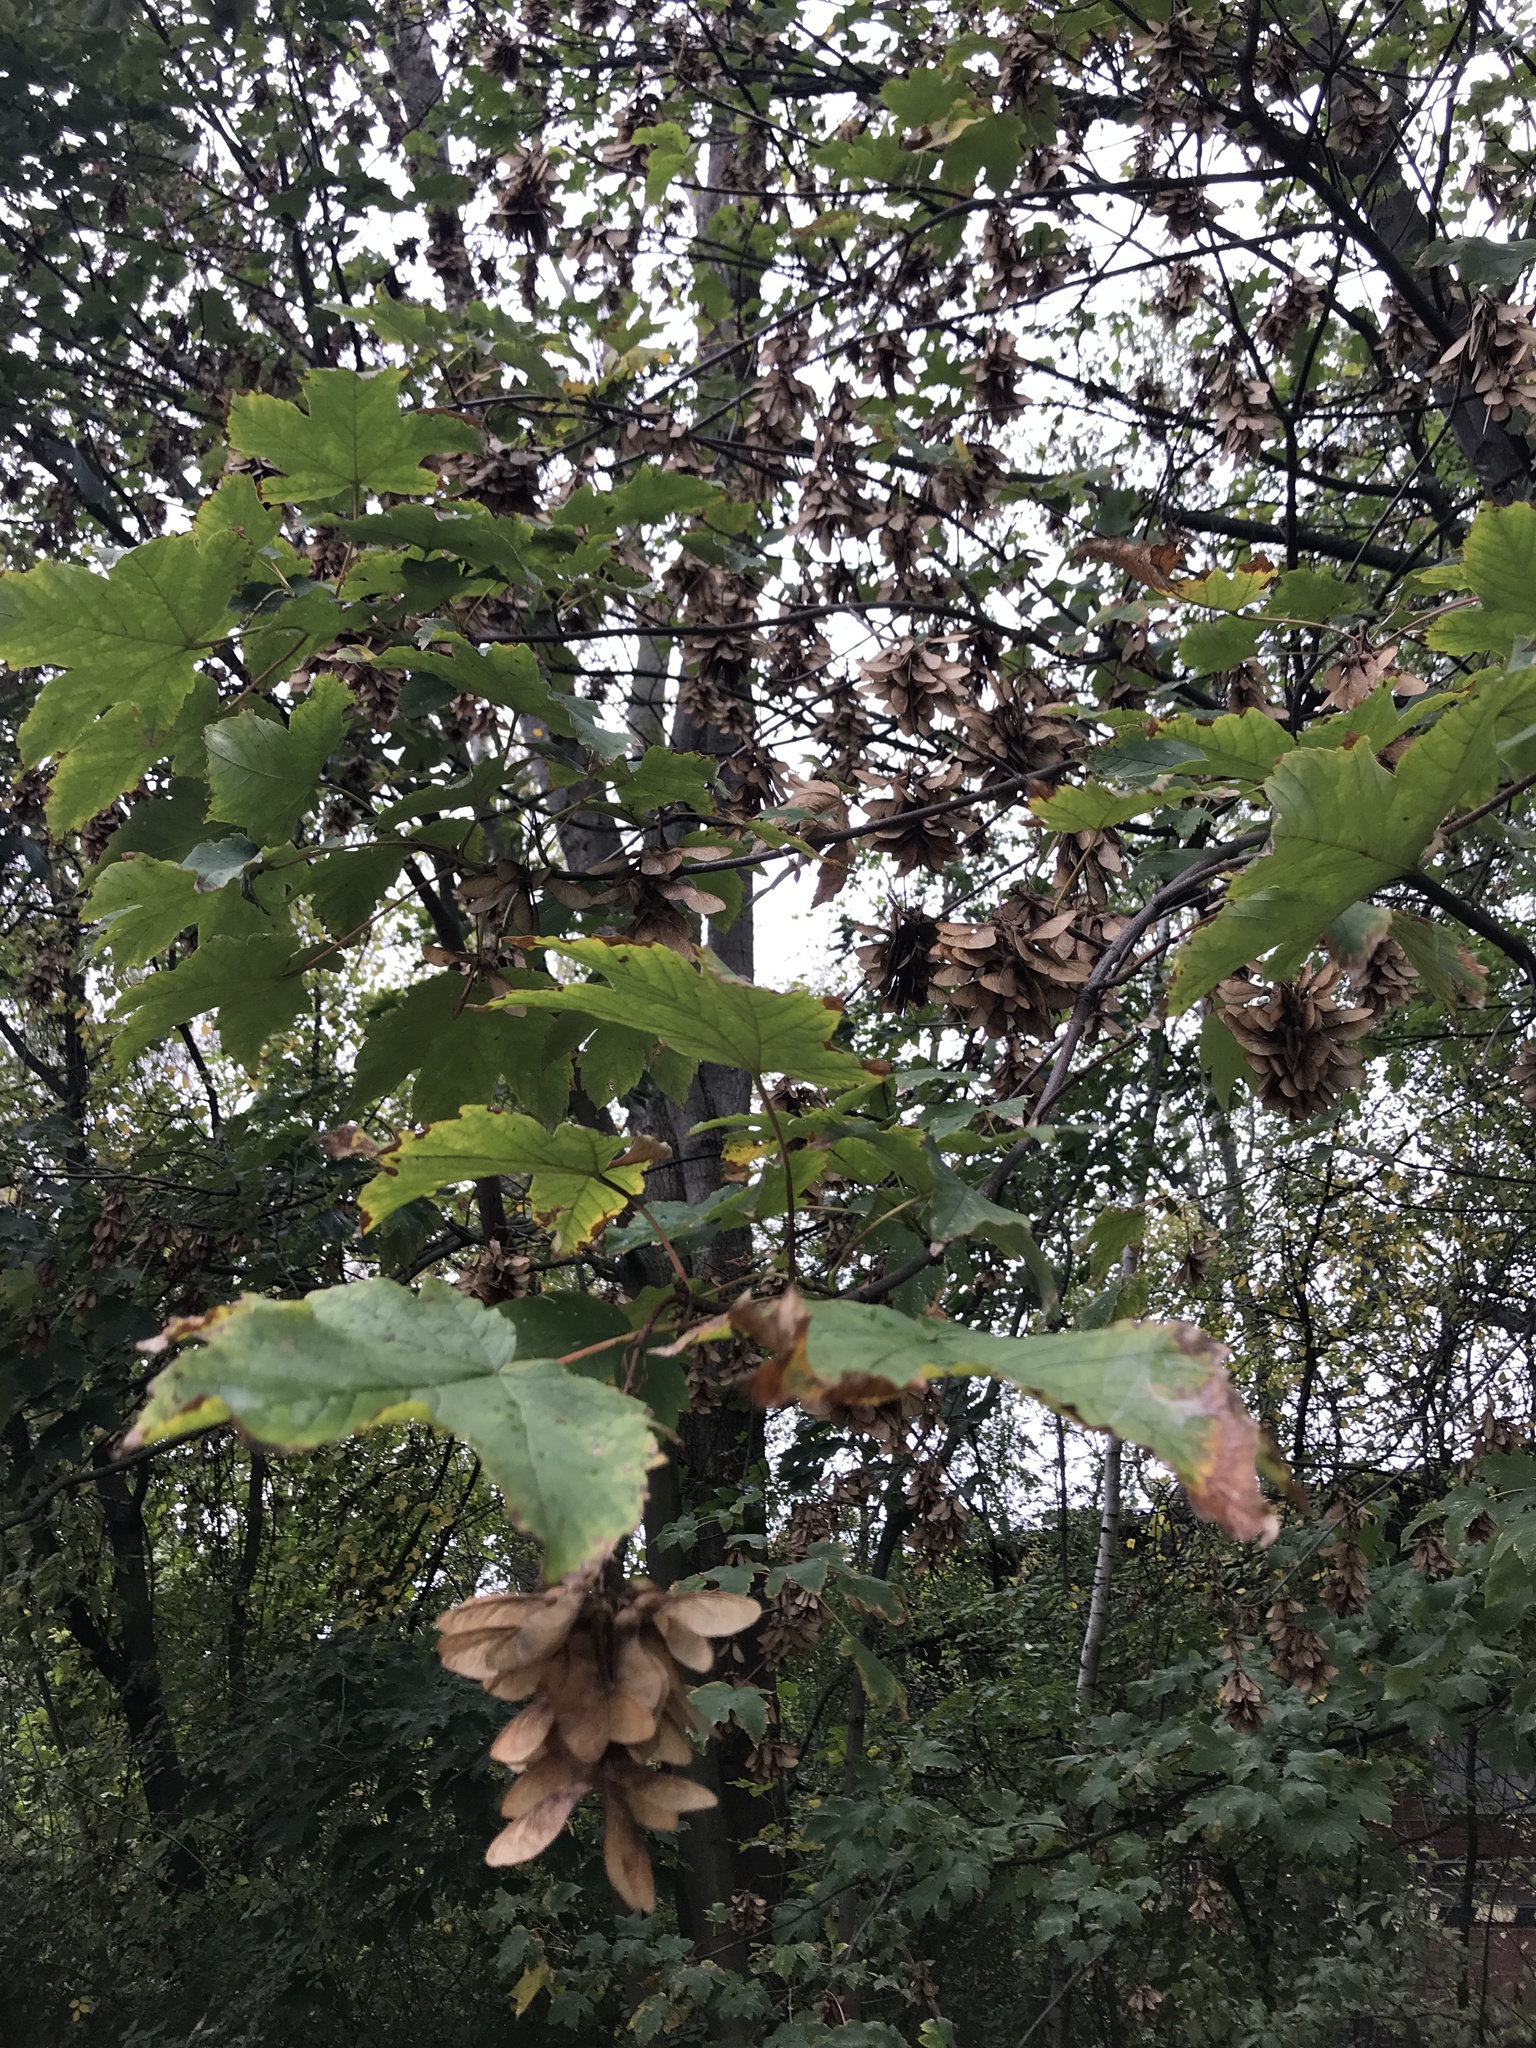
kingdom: Plantae
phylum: Tracheophyta
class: Magnoliopsida
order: Sapindales
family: Sapindaceae
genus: Acer
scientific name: Acer pseudoplatanus
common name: Sycamore
